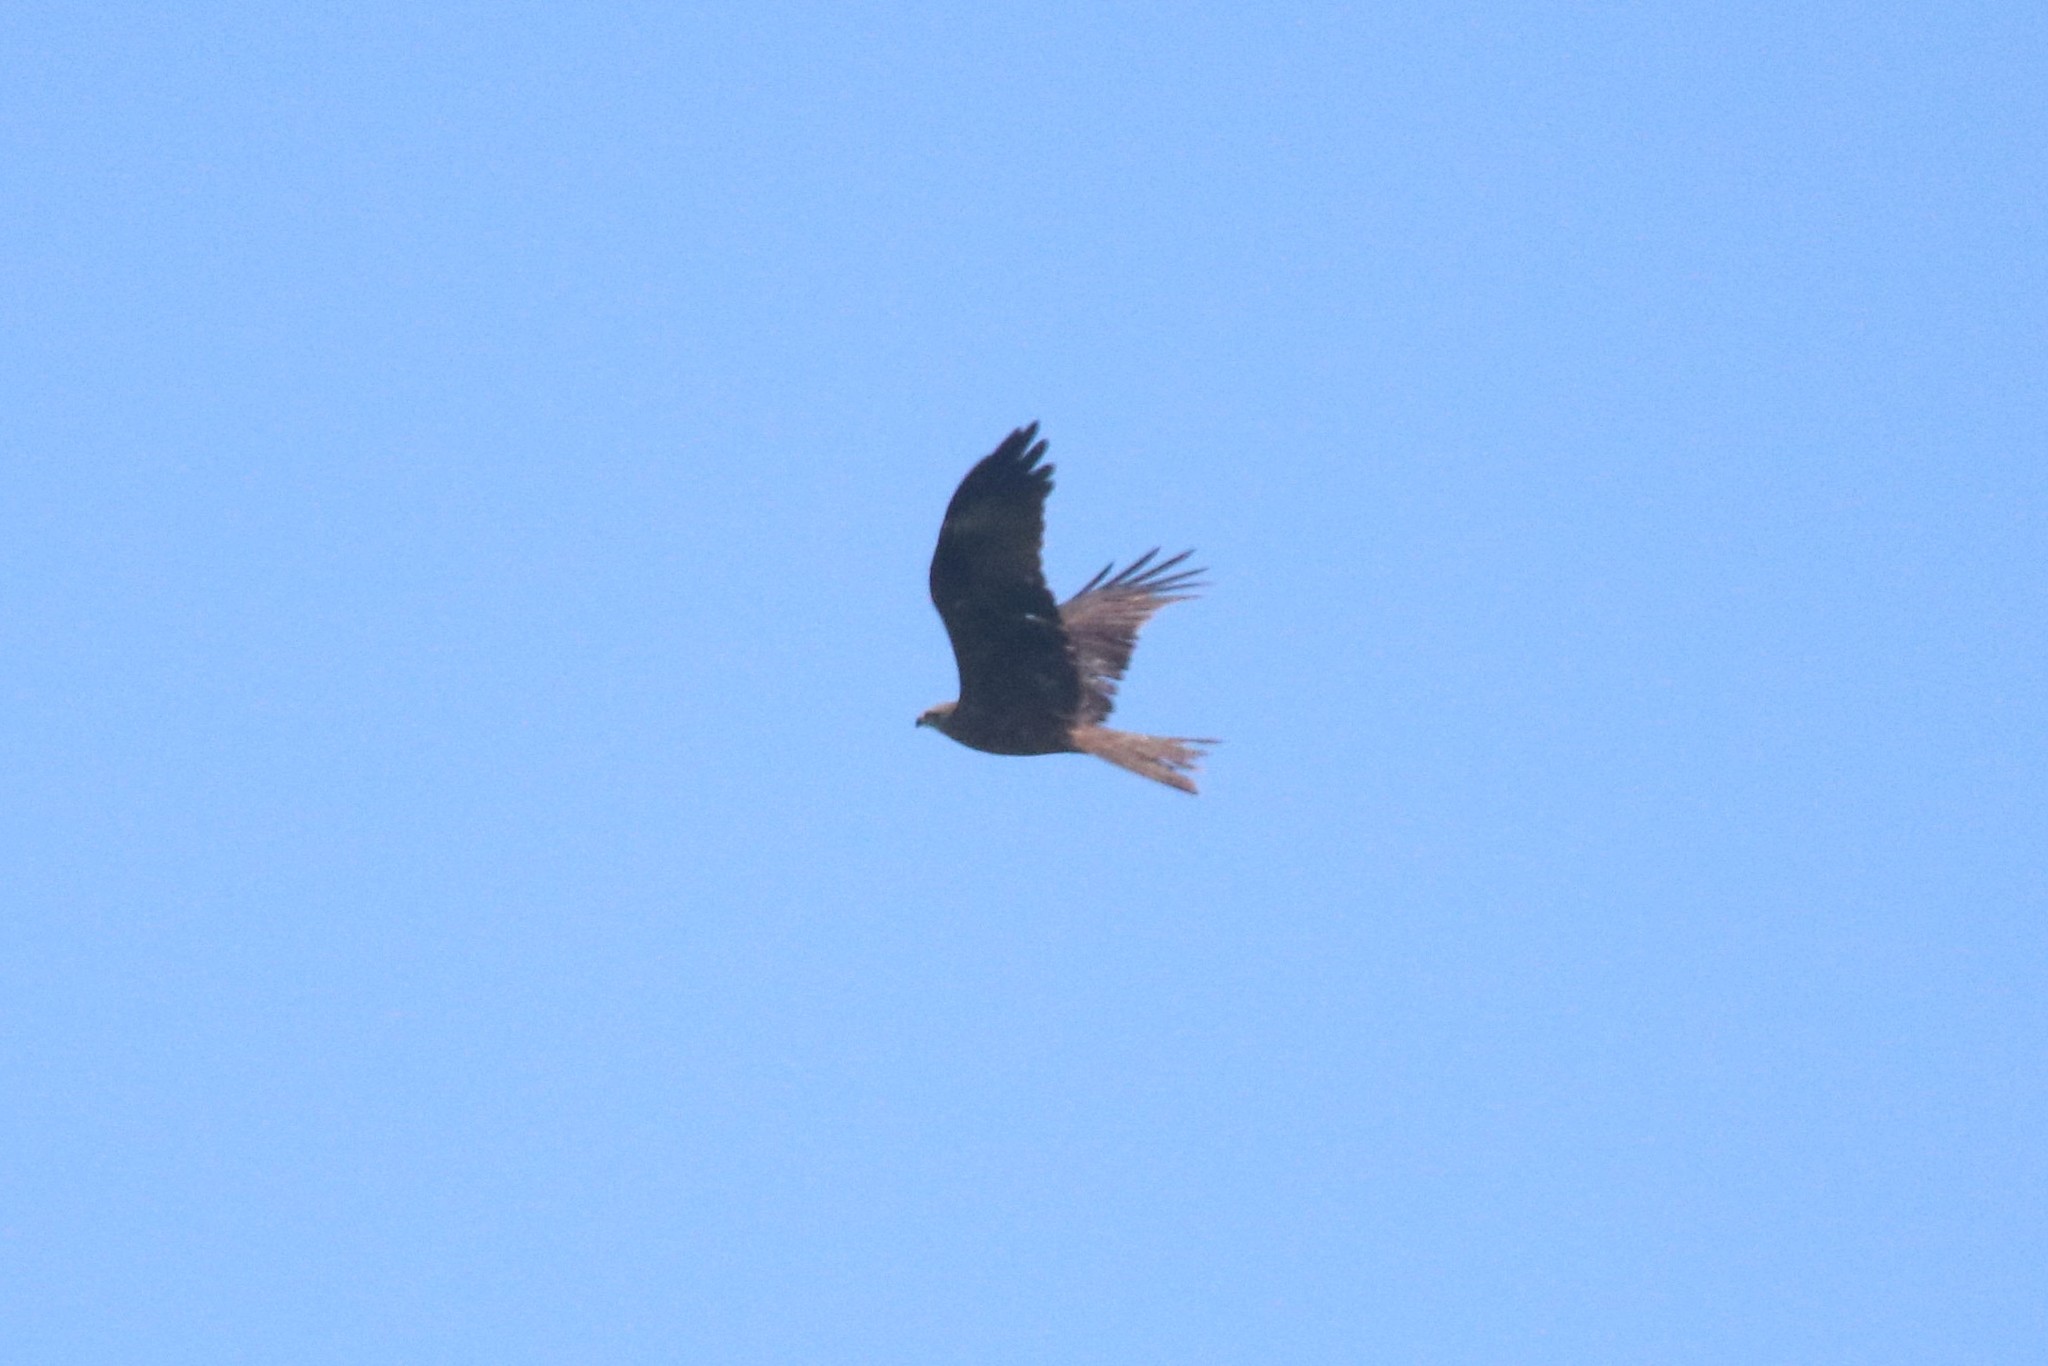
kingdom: Animalia
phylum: Chordata
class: Aves
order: Accipitriformes
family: Accipitridae
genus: Milvus
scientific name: Milvus migrans
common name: Black kite
